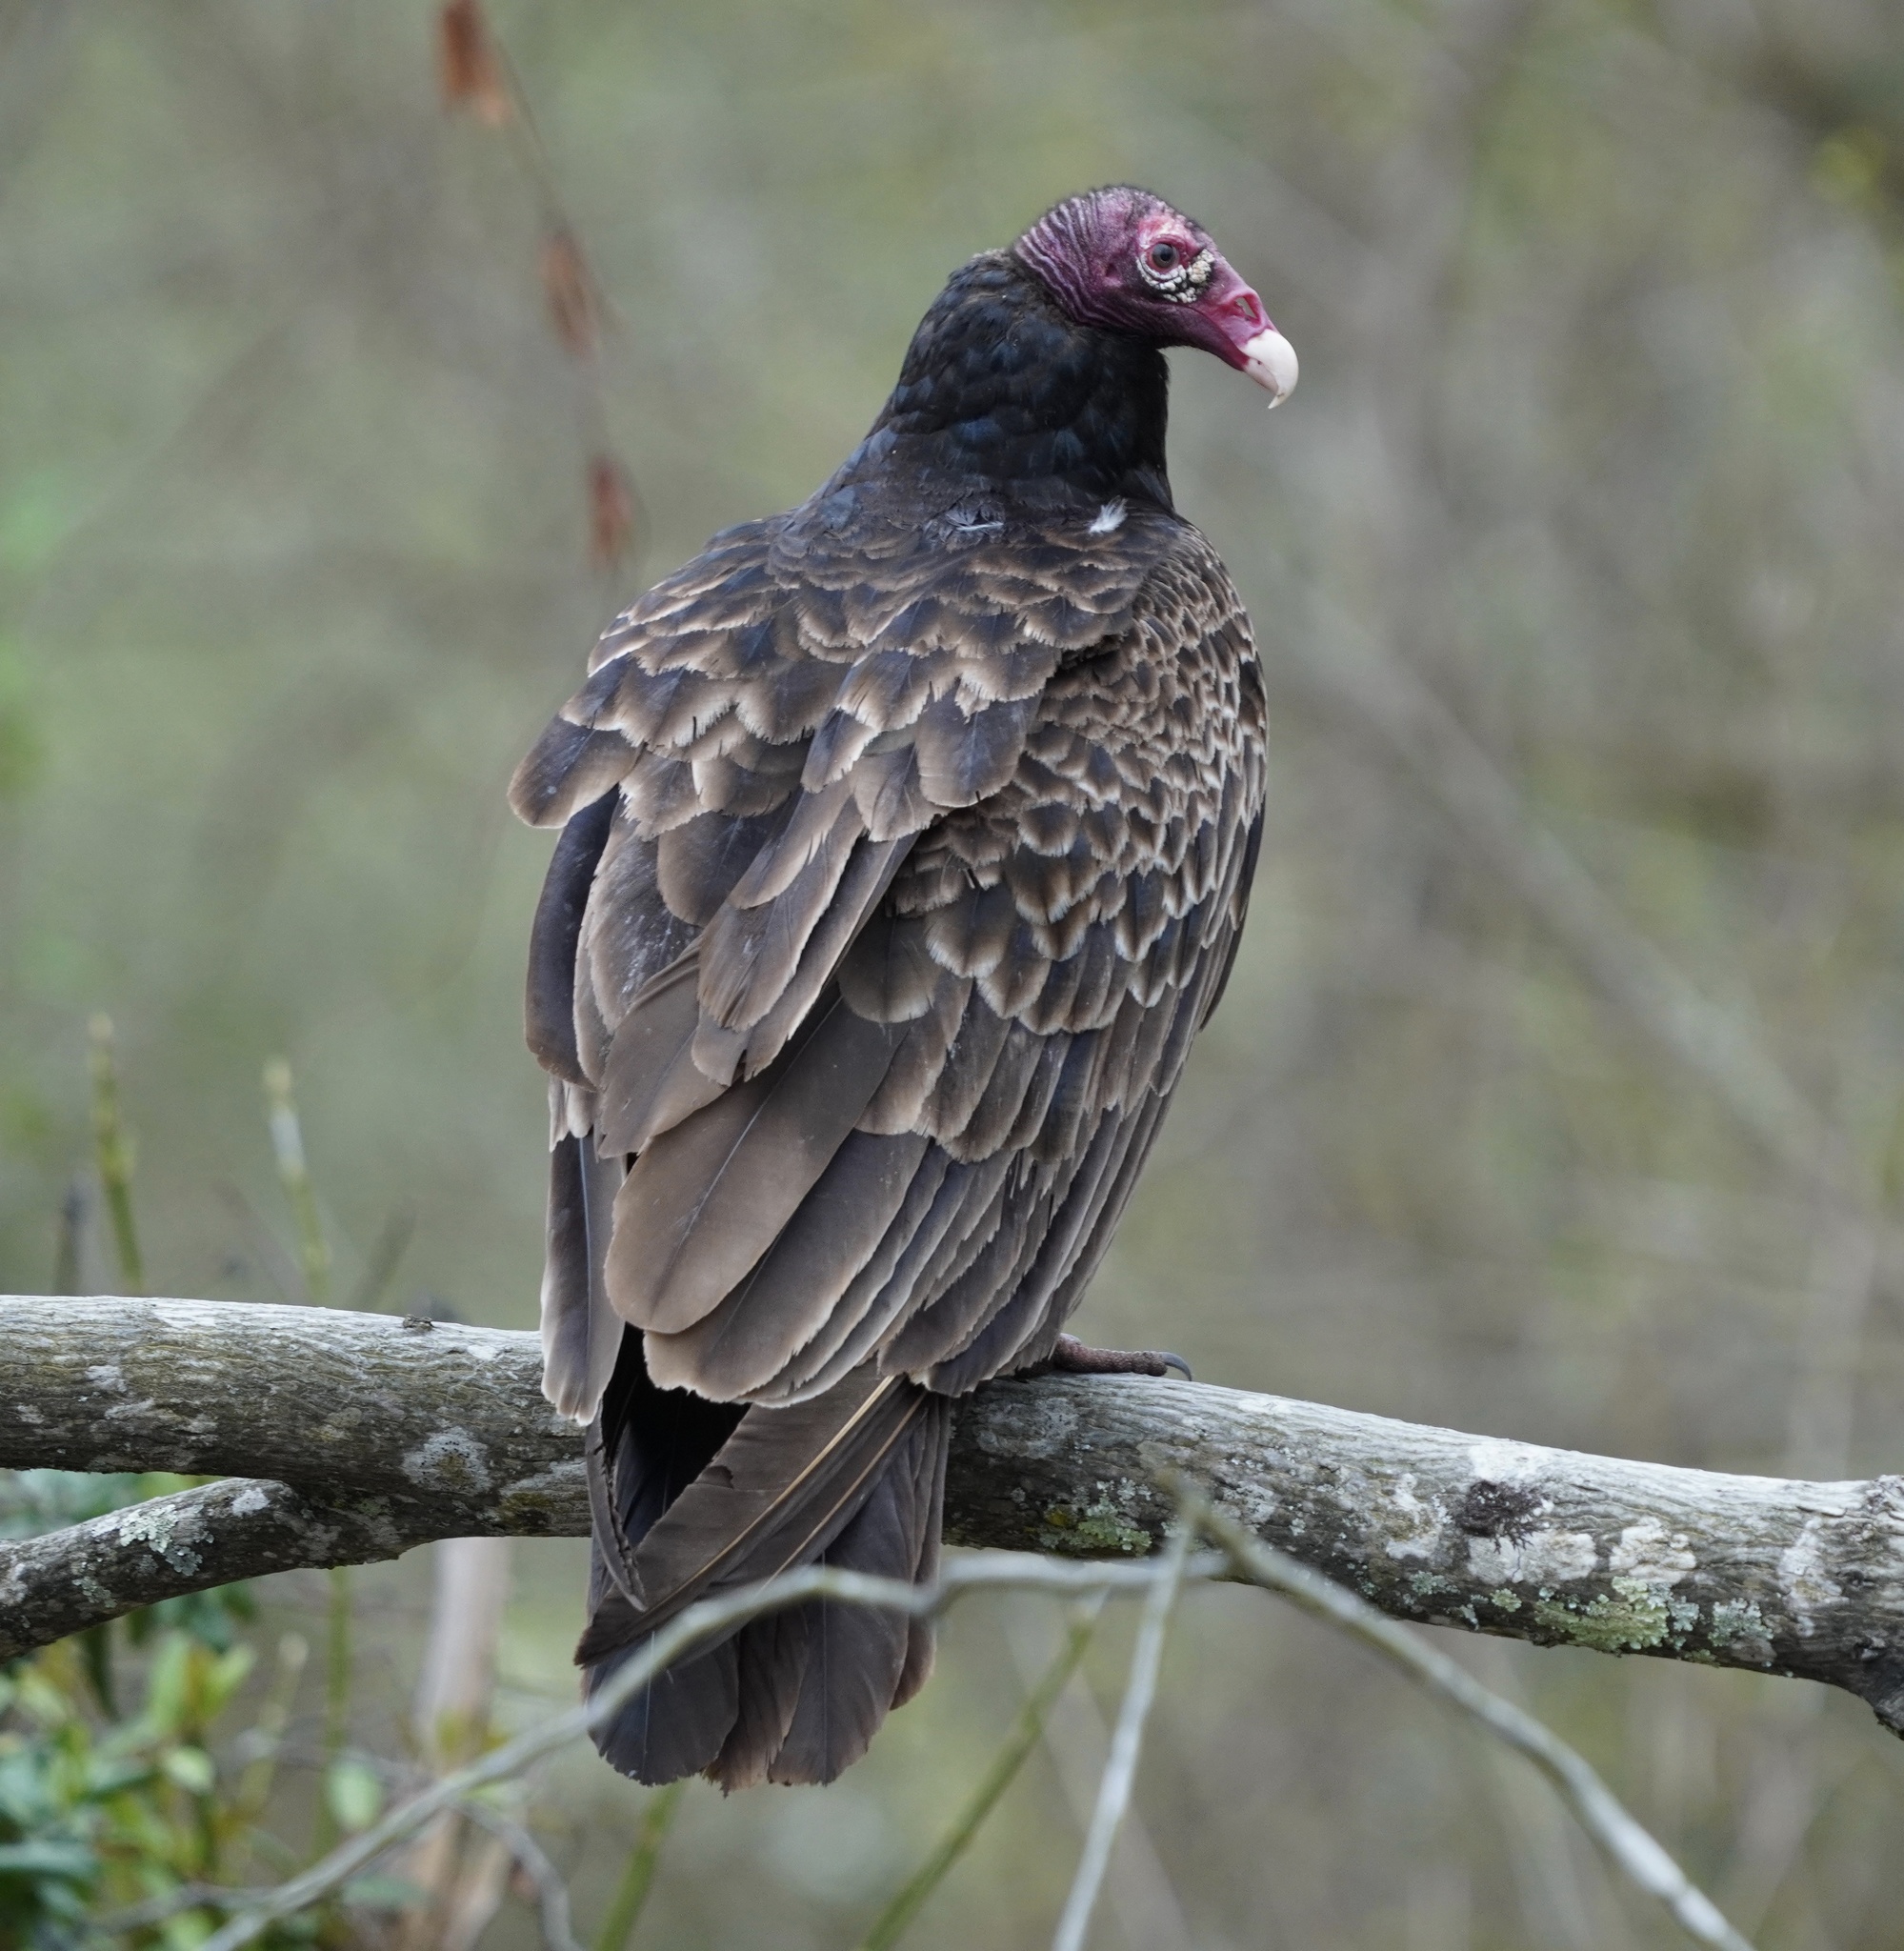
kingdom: Animalia
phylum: Chordata
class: Aves
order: Accipitriformes
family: Cathartidae
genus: Cathartes
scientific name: Cathartes aura
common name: Turkey vulture
